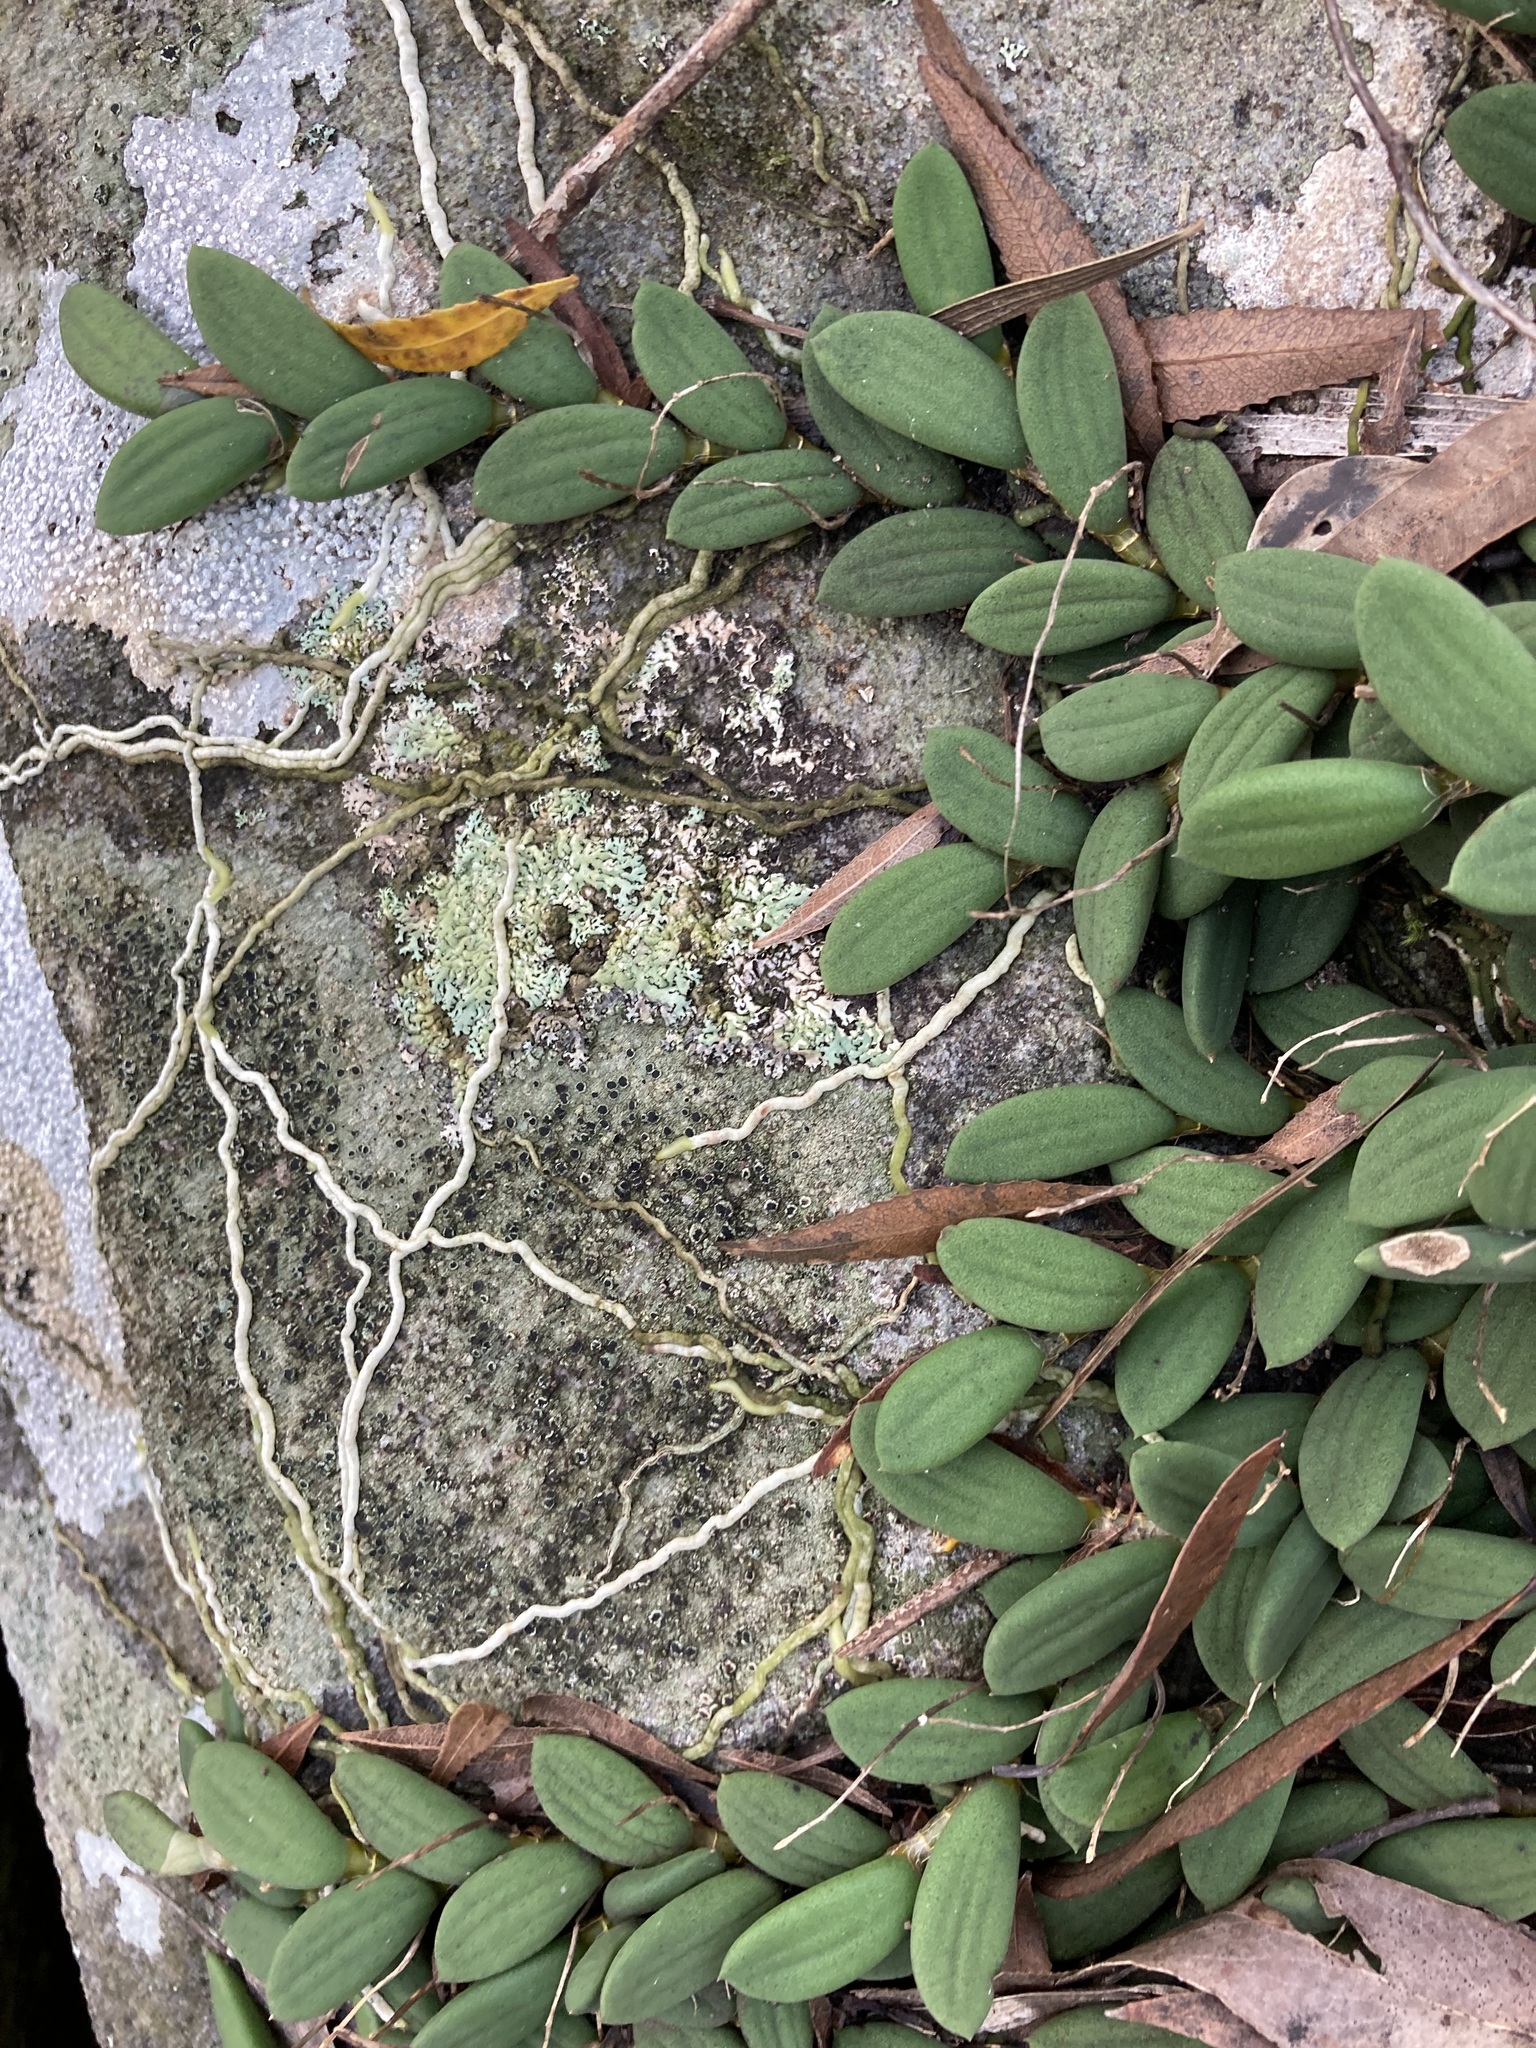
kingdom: Plantae
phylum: Tracheophyta
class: Liliopsida
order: Asparagales
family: Orchidaceae
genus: Dendrobium
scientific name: Dendrobium linguiforme
